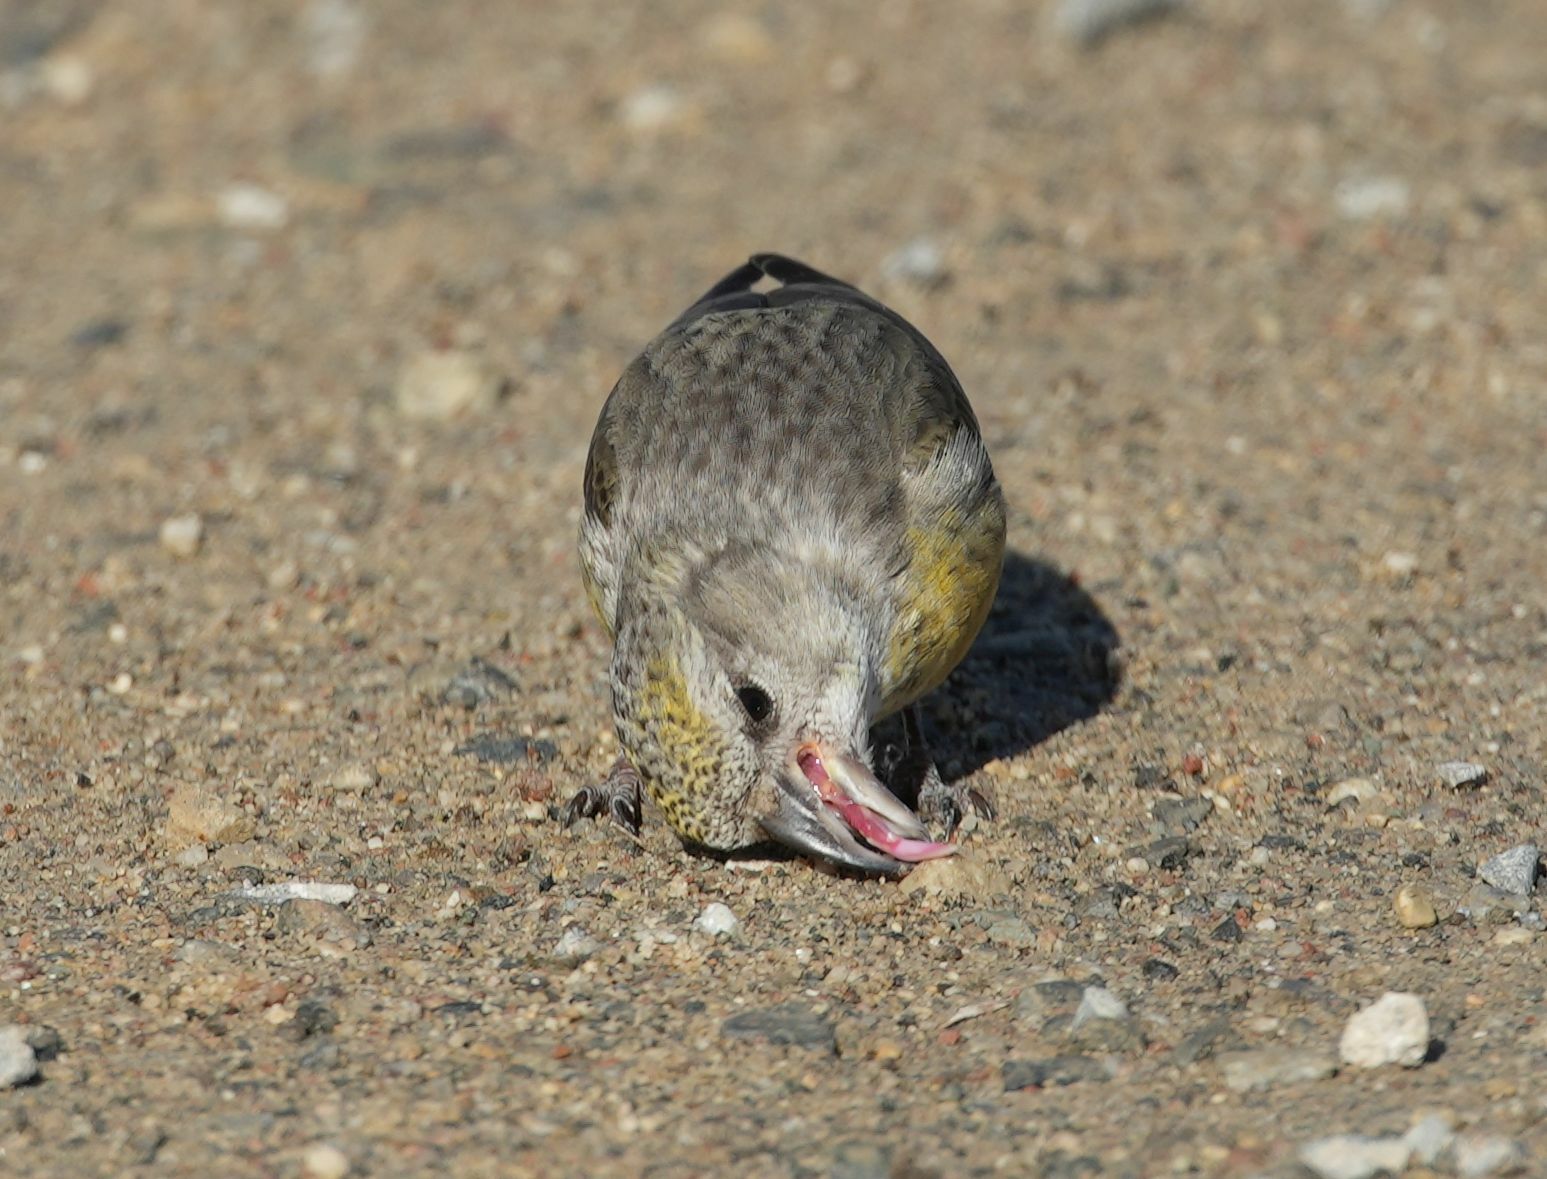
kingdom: Animalia
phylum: Chordata
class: Aves
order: Passeriformes
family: Fringillidae
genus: Loxia
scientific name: Loxia curvirostra
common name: Red crossbill
